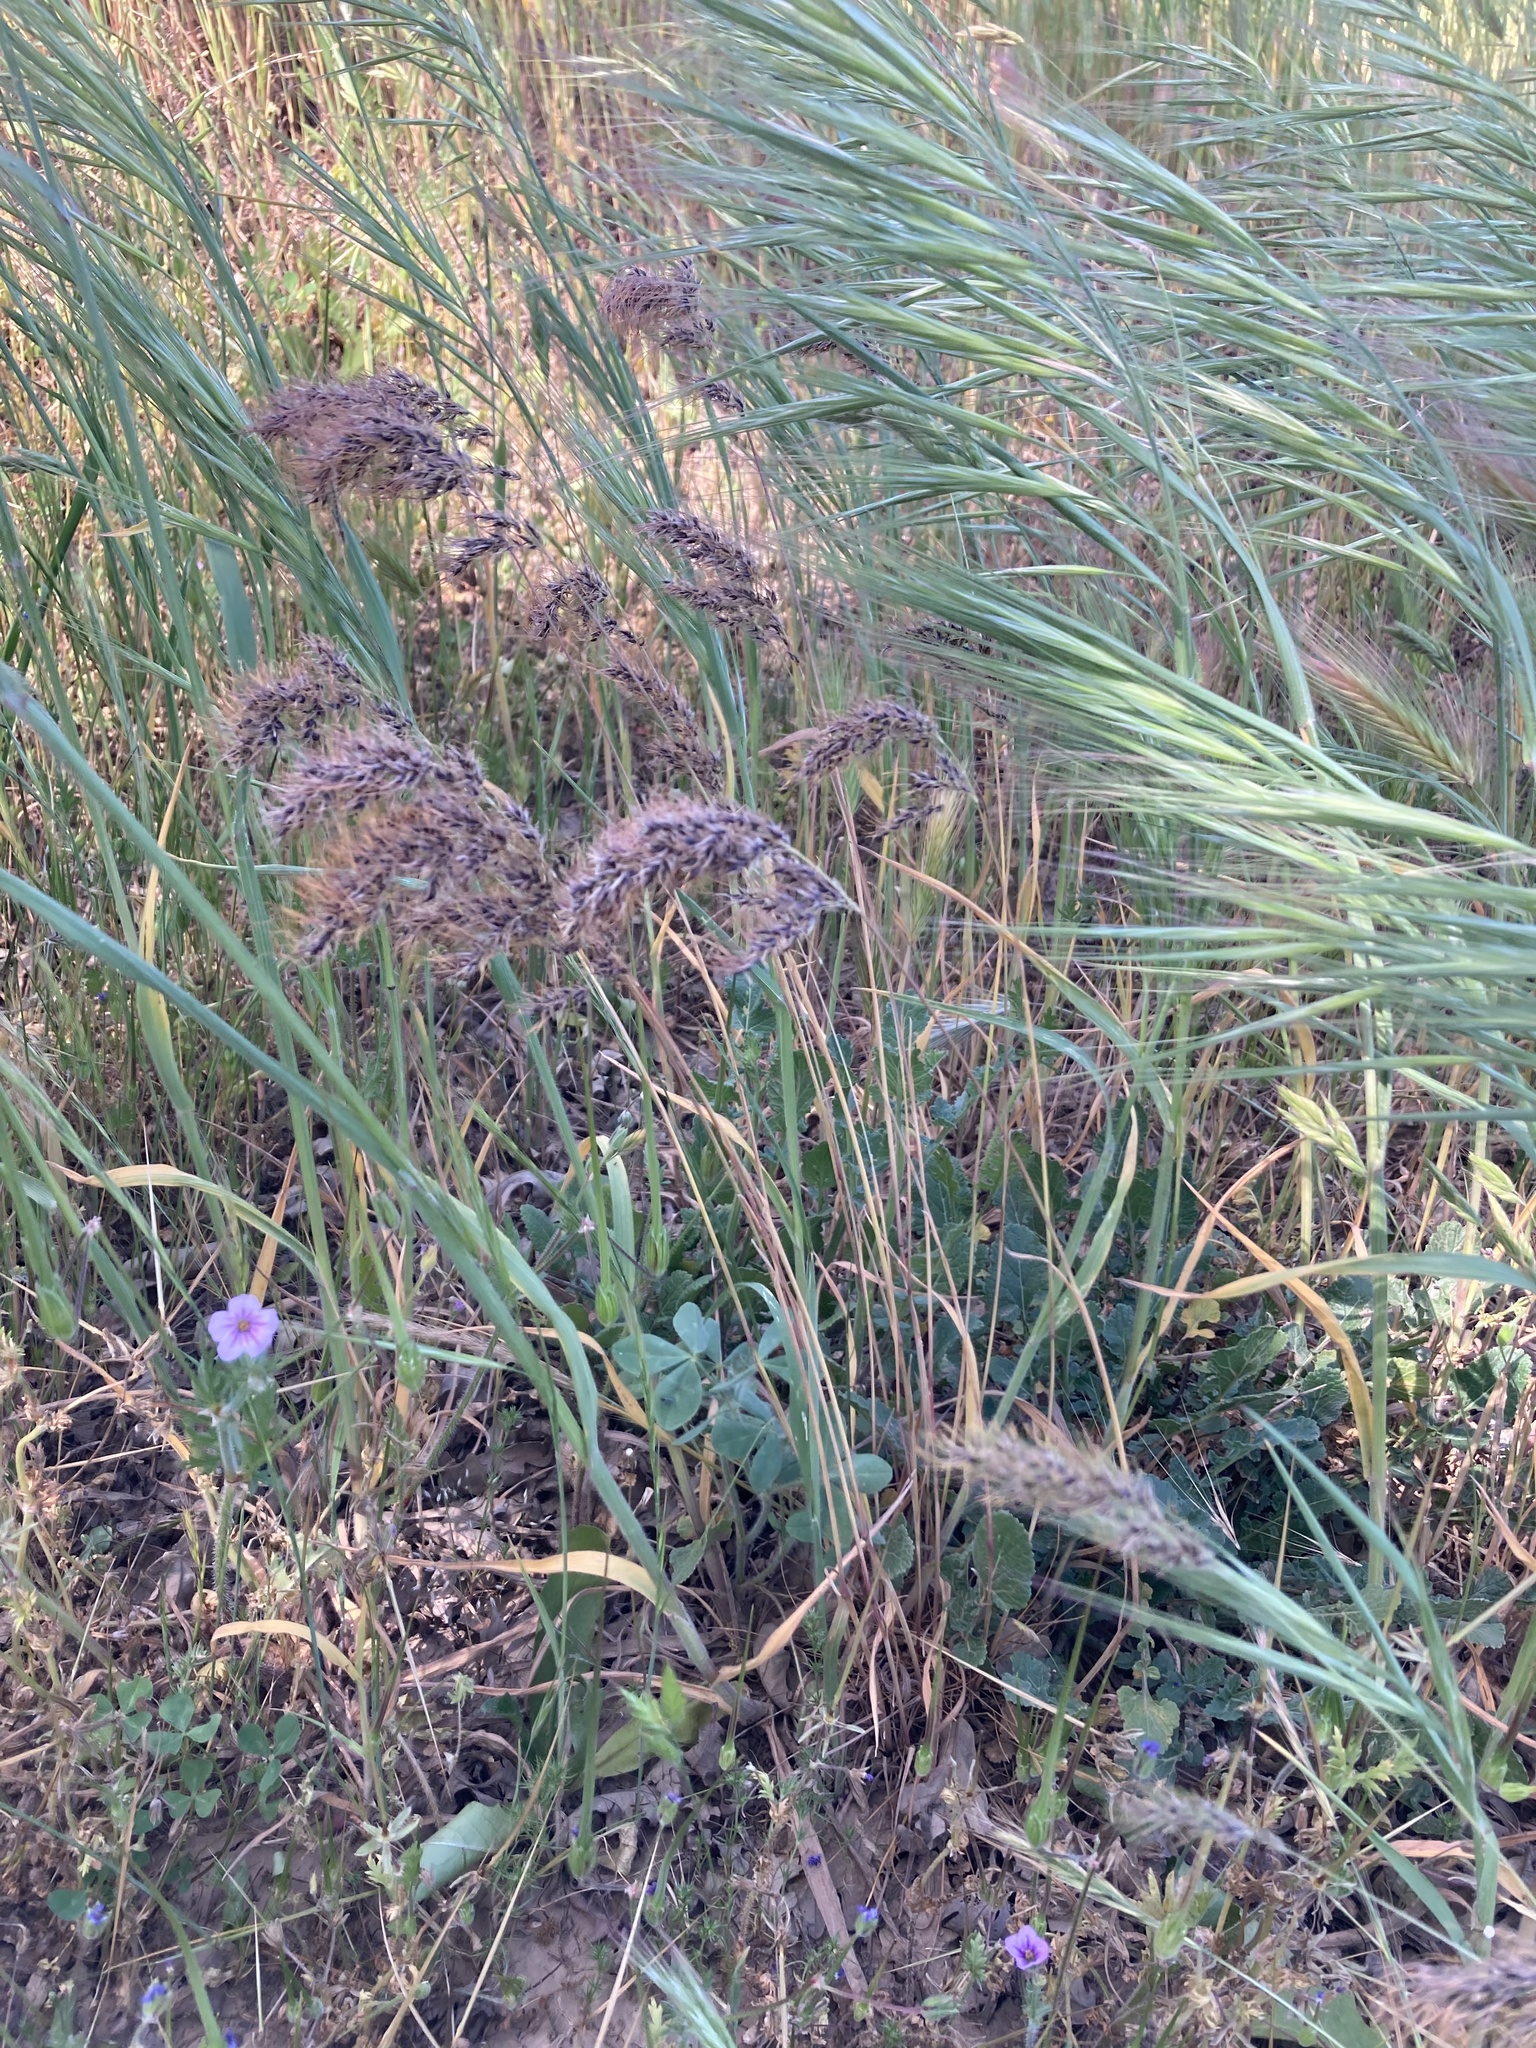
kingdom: Plantae
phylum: Tracheophyta
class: Liliopsida
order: Poales
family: Poaceae
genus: Poa
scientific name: Poa bulbosa
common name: Bulbous bluegrass
